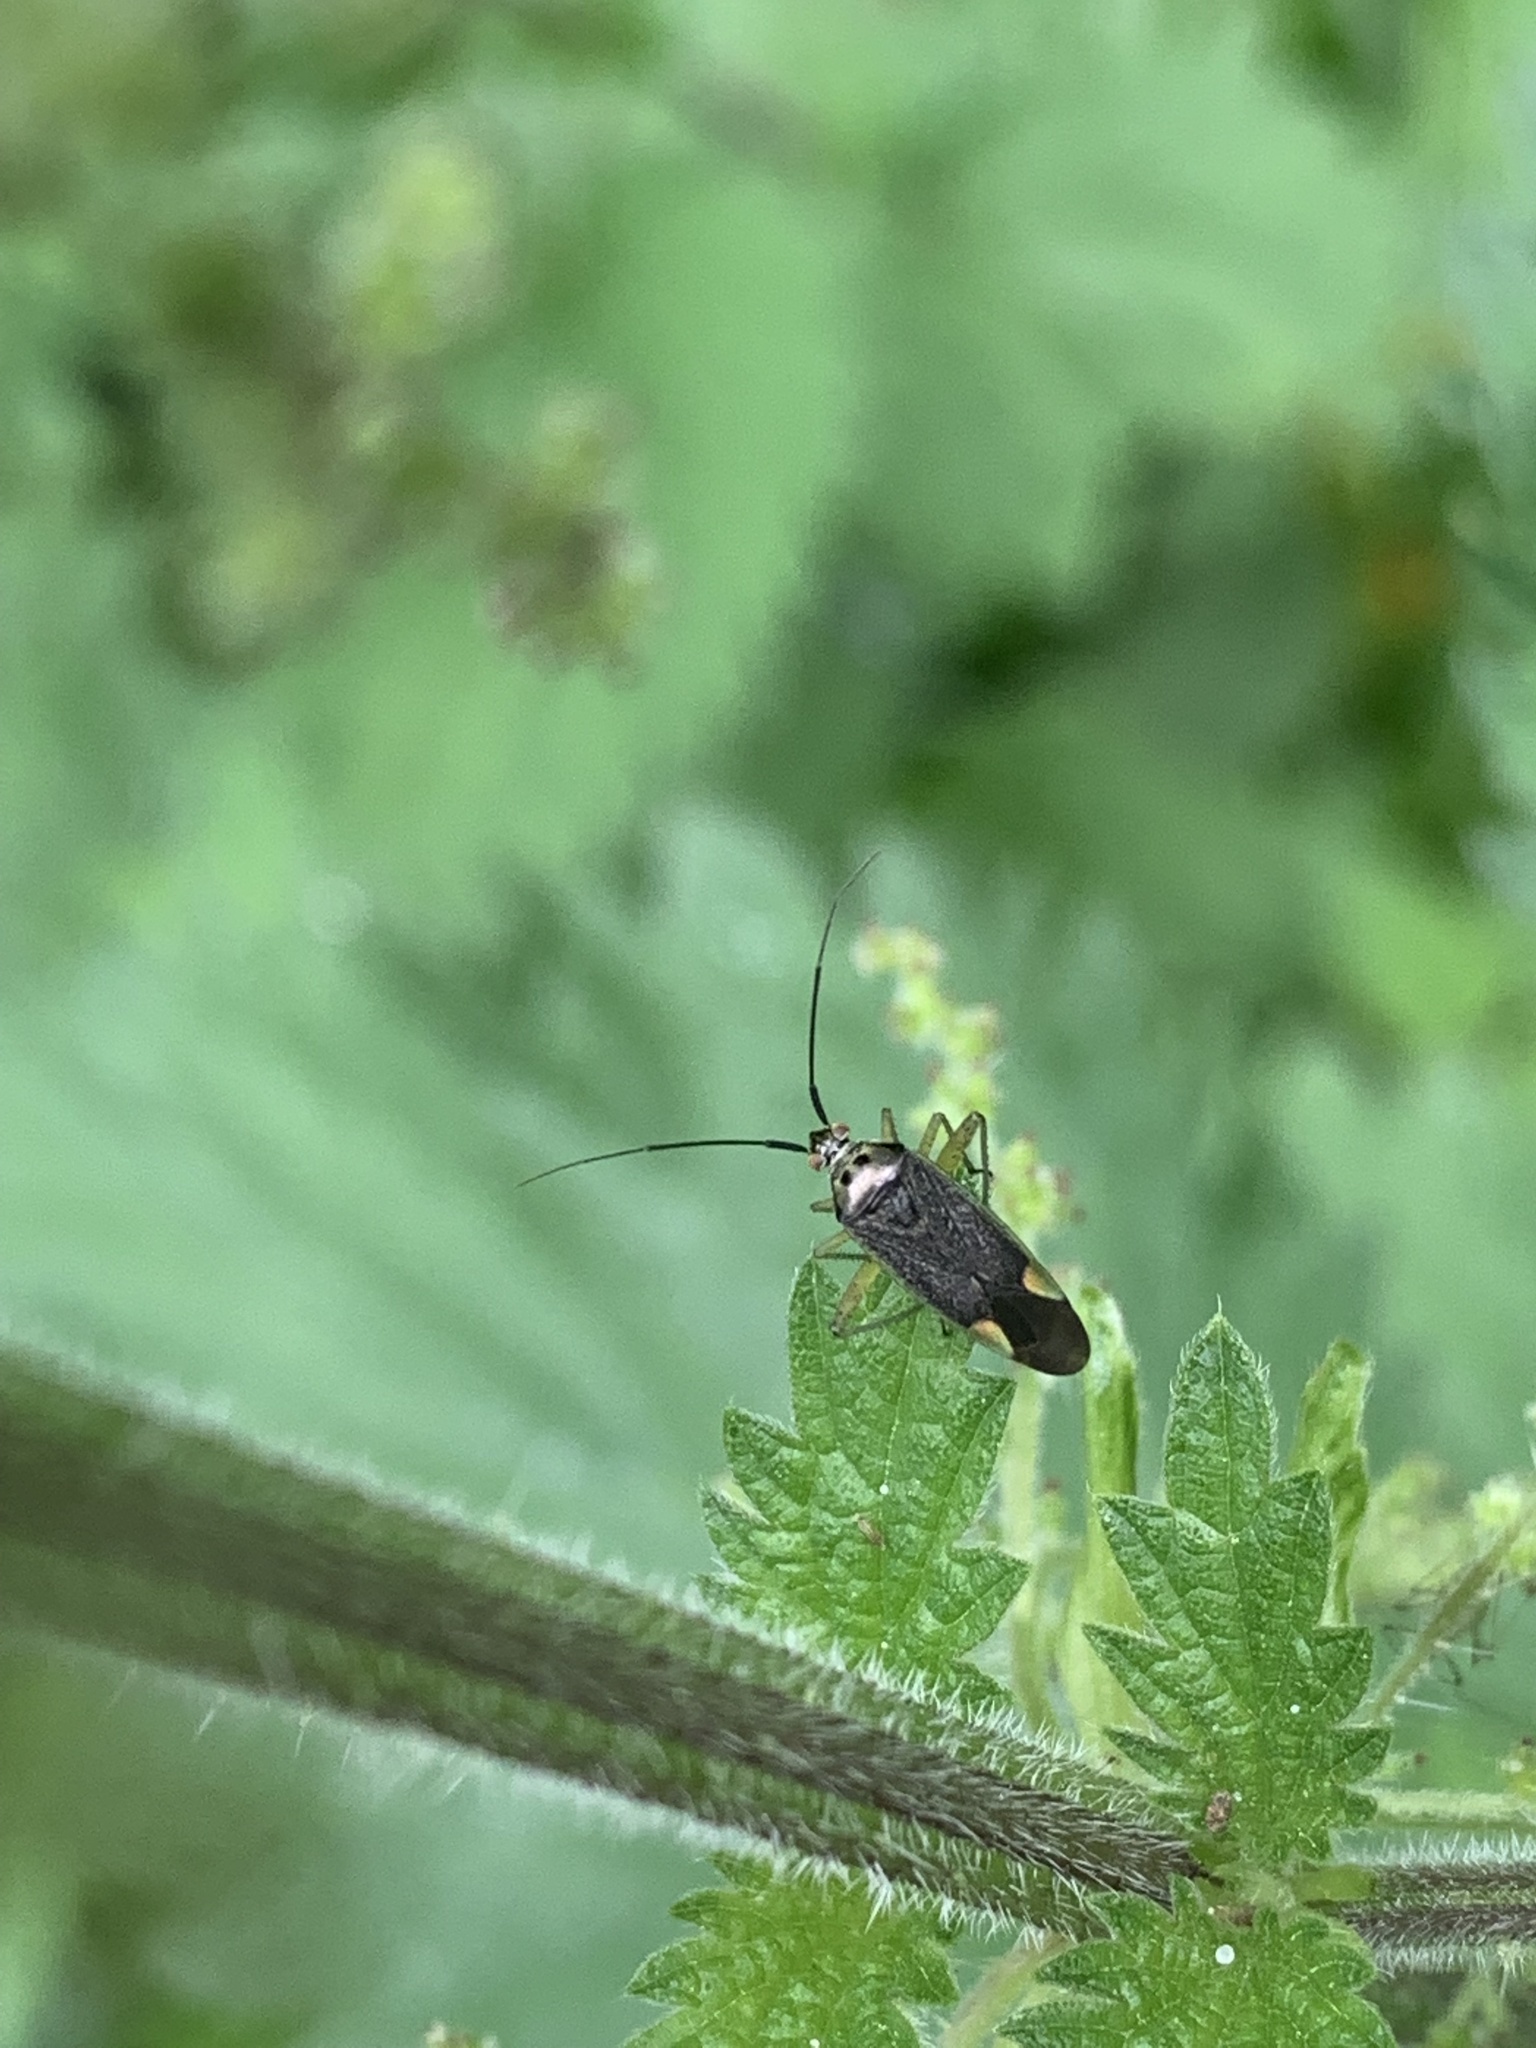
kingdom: Animalia
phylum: Arthropoda
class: Insecta
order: Hemiptera
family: Miridae
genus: Closterotomus
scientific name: Closterotomus trivialis
